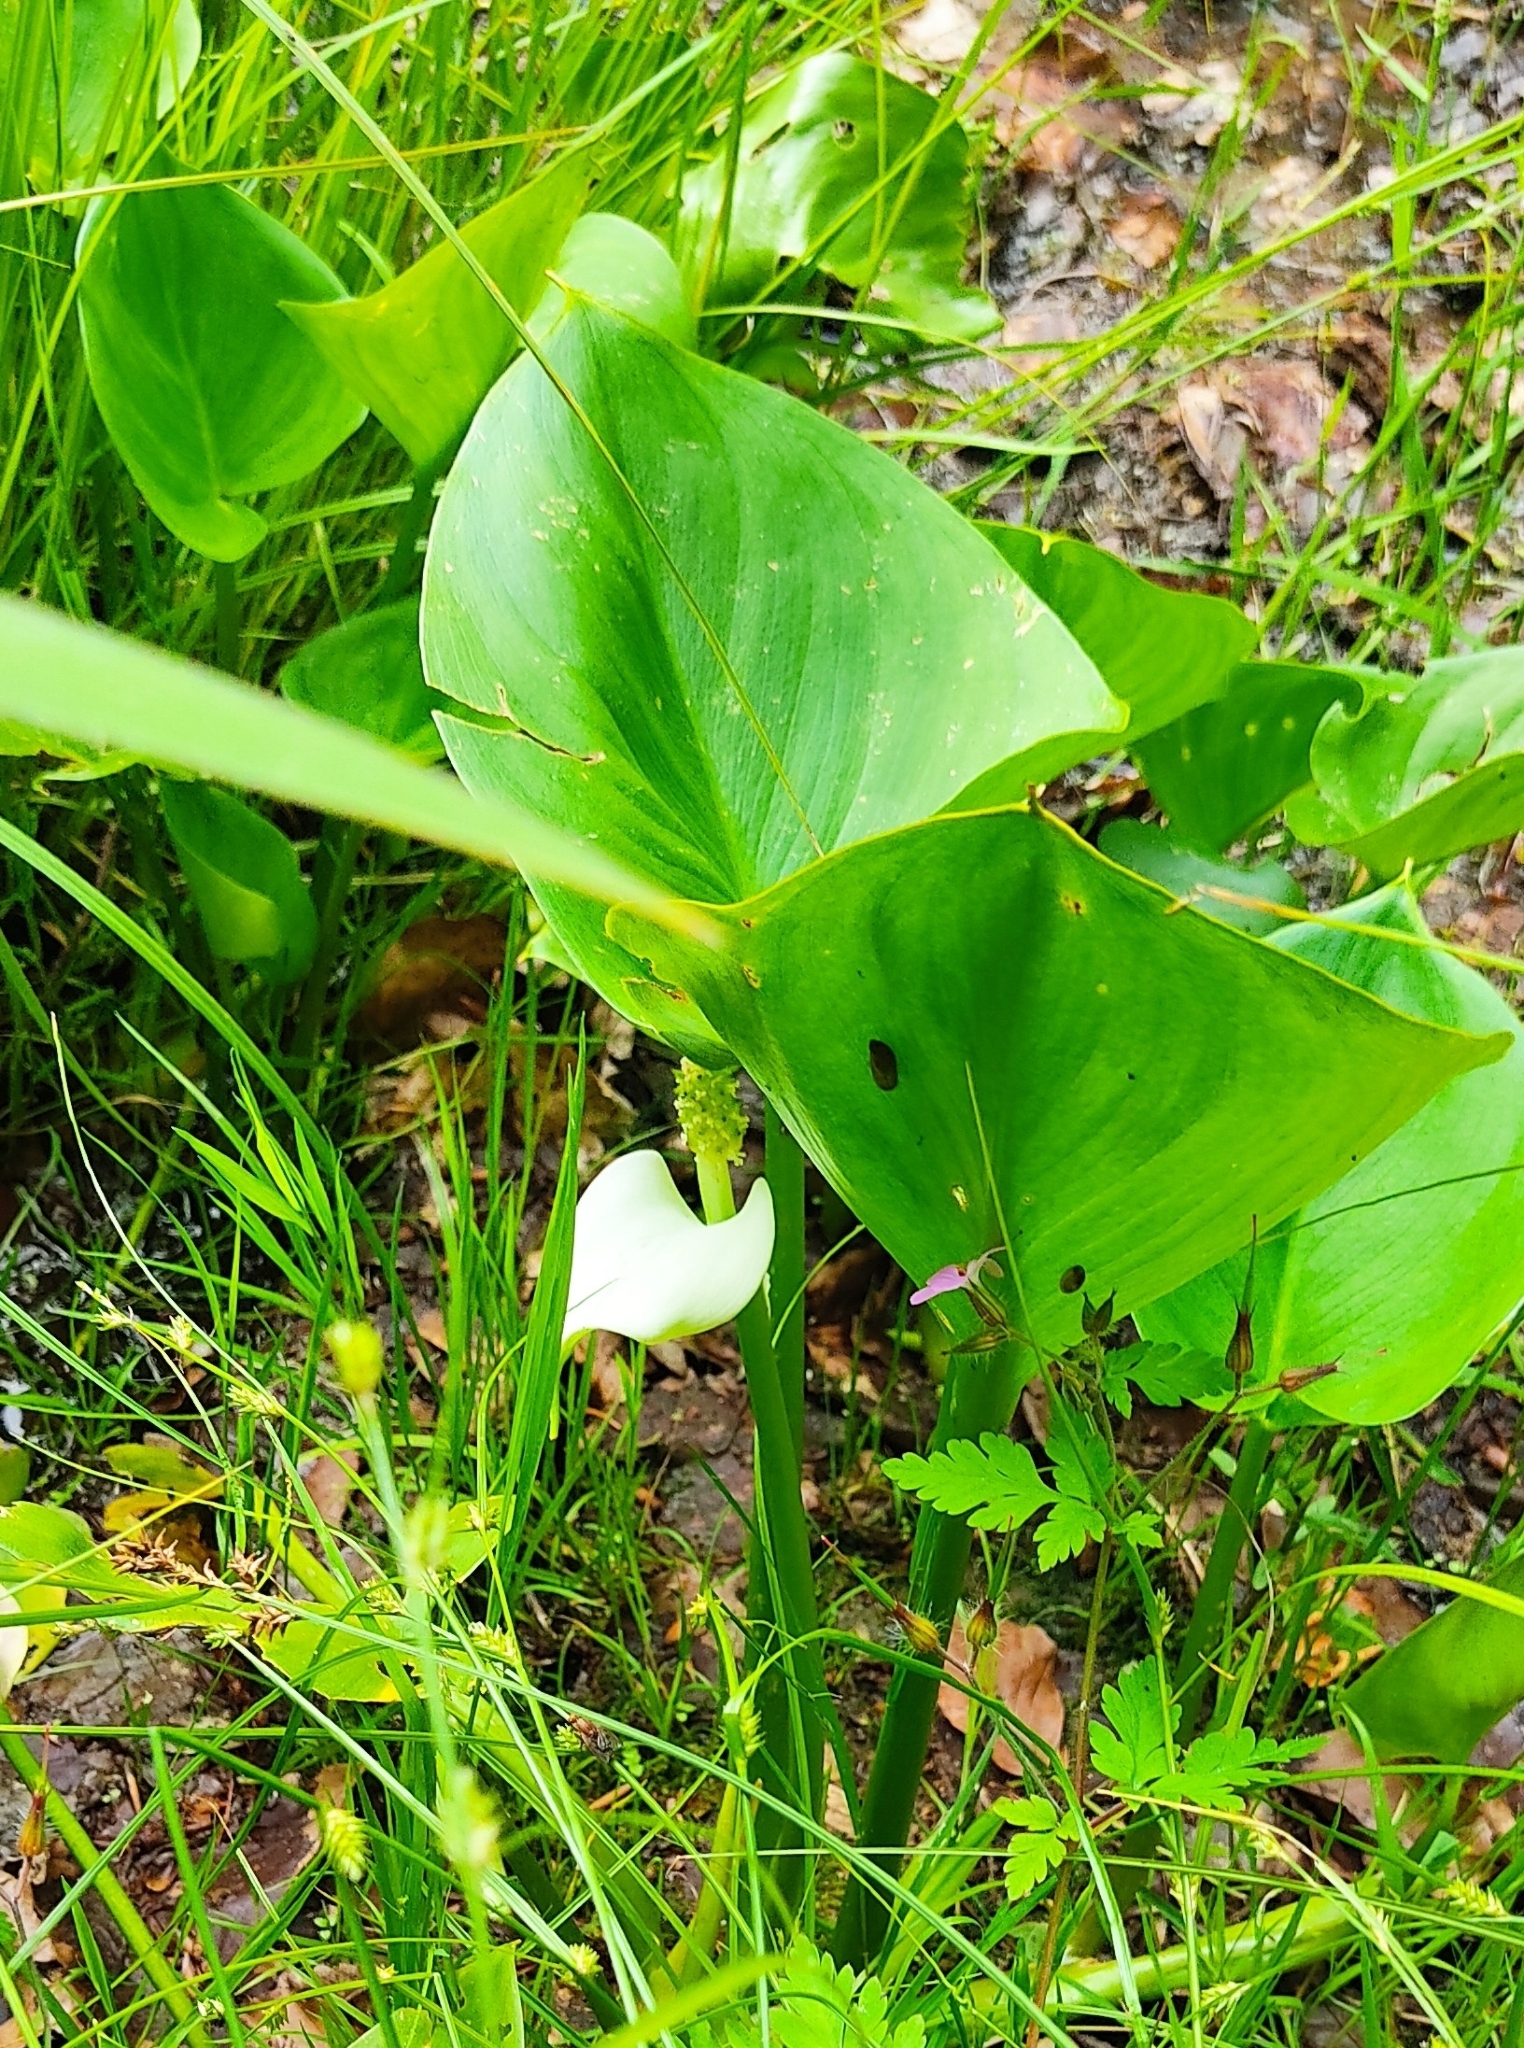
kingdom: Plantae
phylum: Tracheophyta
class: Liliopsida
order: Alismatales
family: Araceae
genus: Calla
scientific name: Calla palustris
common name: Bog arum
